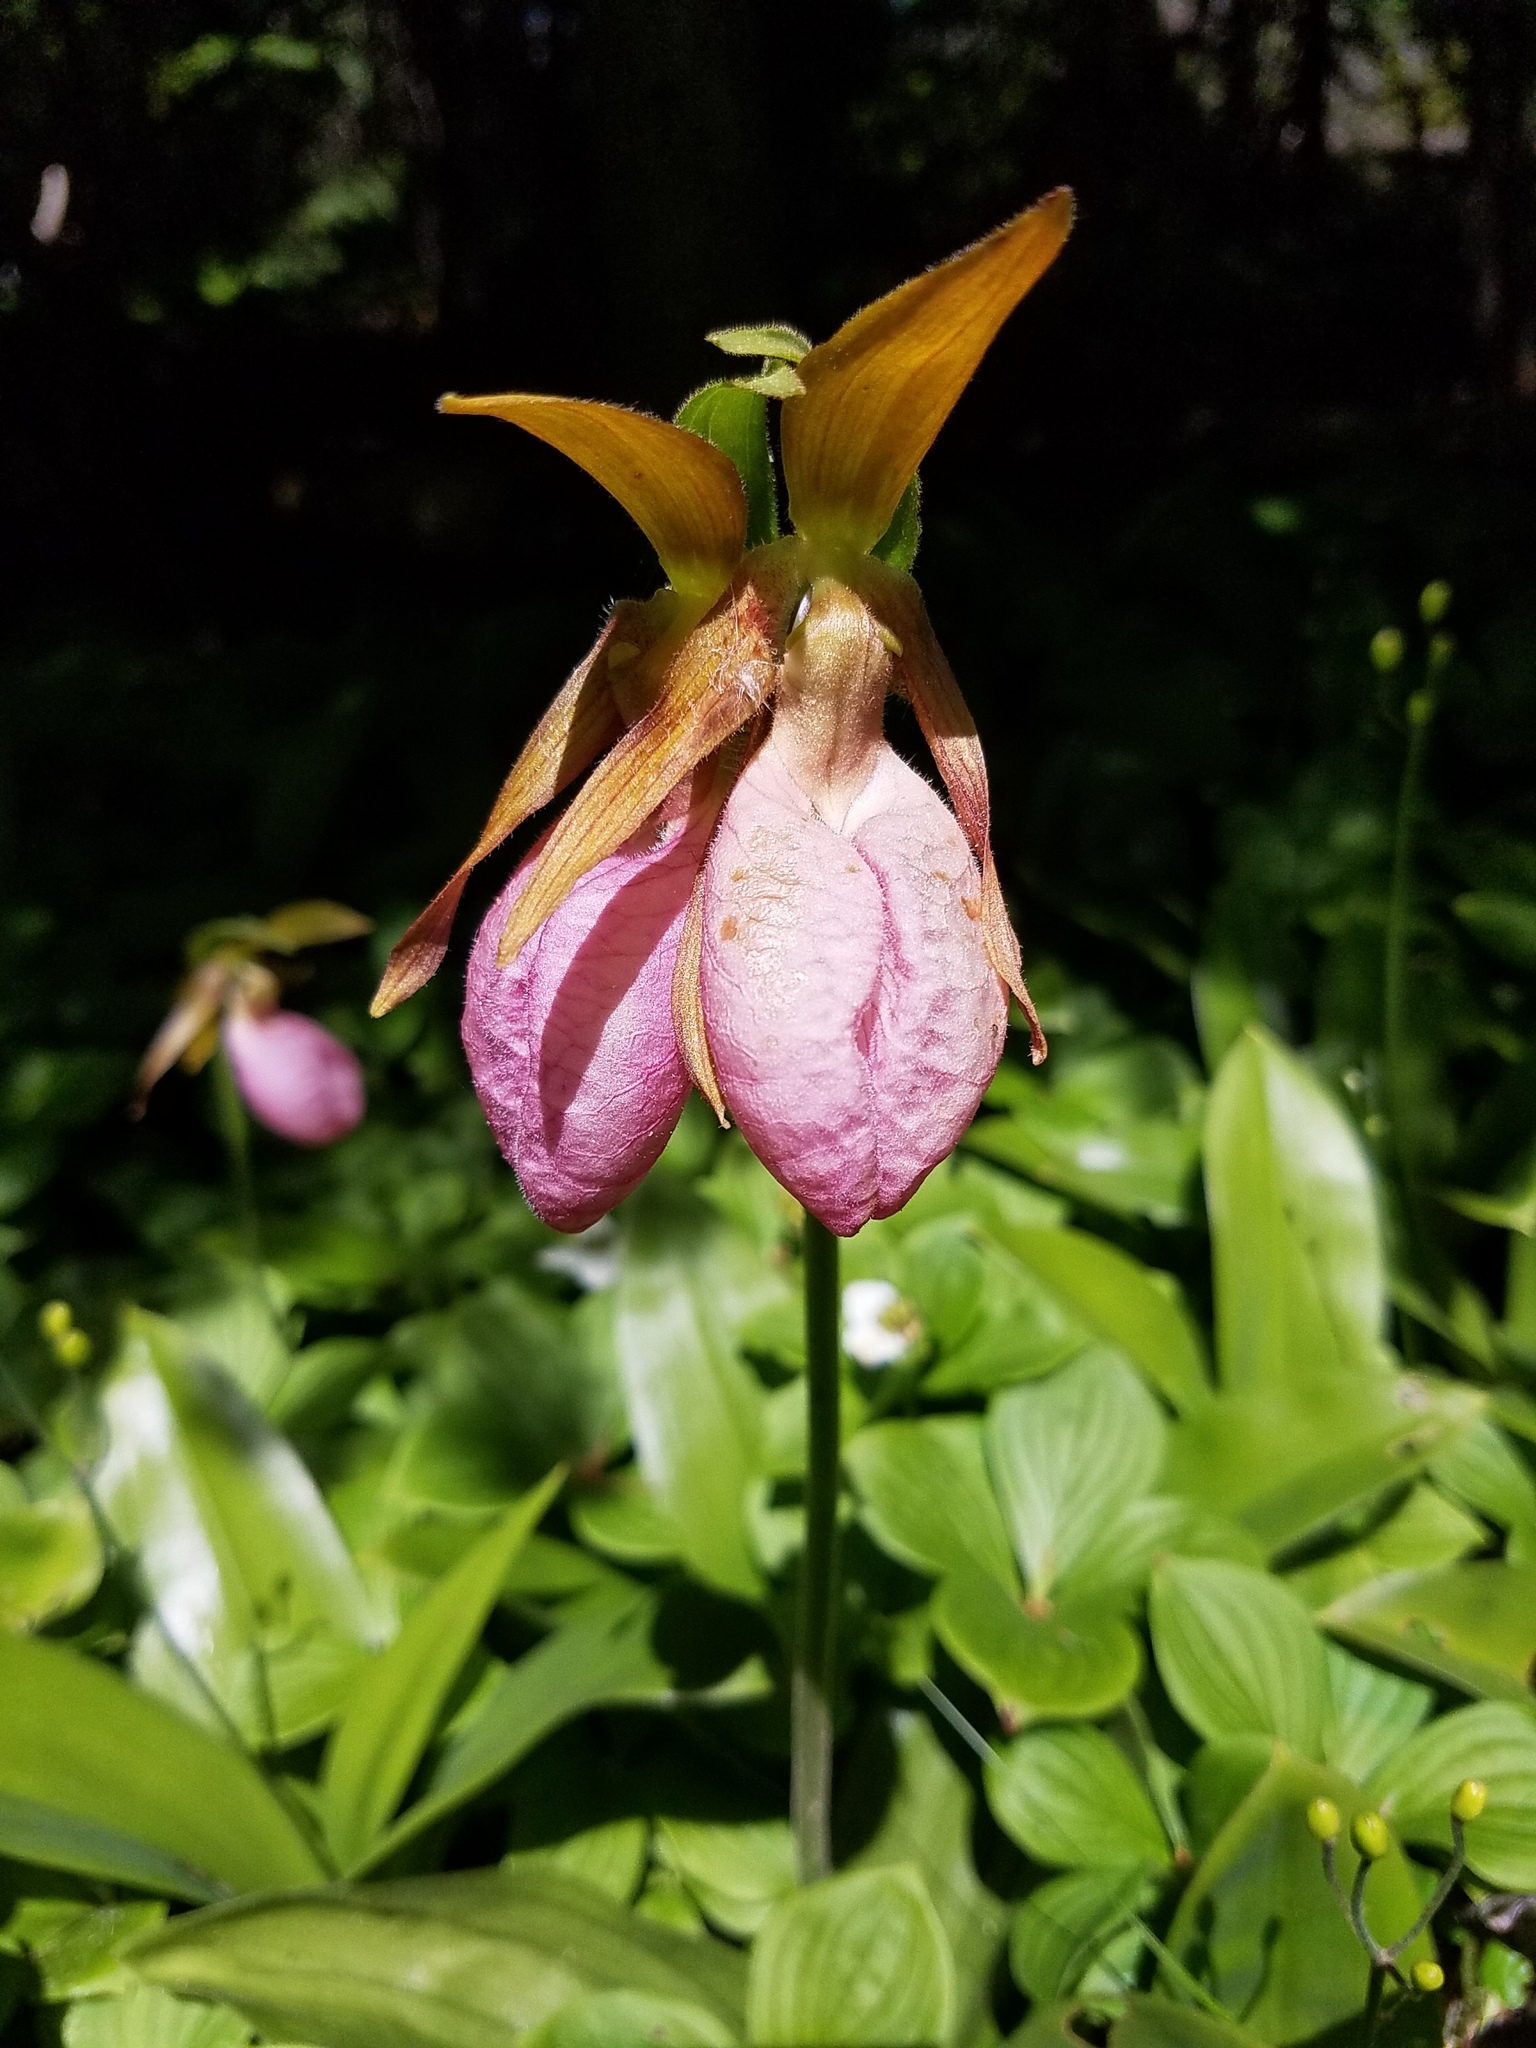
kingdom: Plantae
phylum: Tracheophyta
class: Liliopsida
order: Asparagales
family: Orchidaceae
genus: Cypripedium
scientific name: Cypripedium acaule
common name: Pink lady's-slipper
